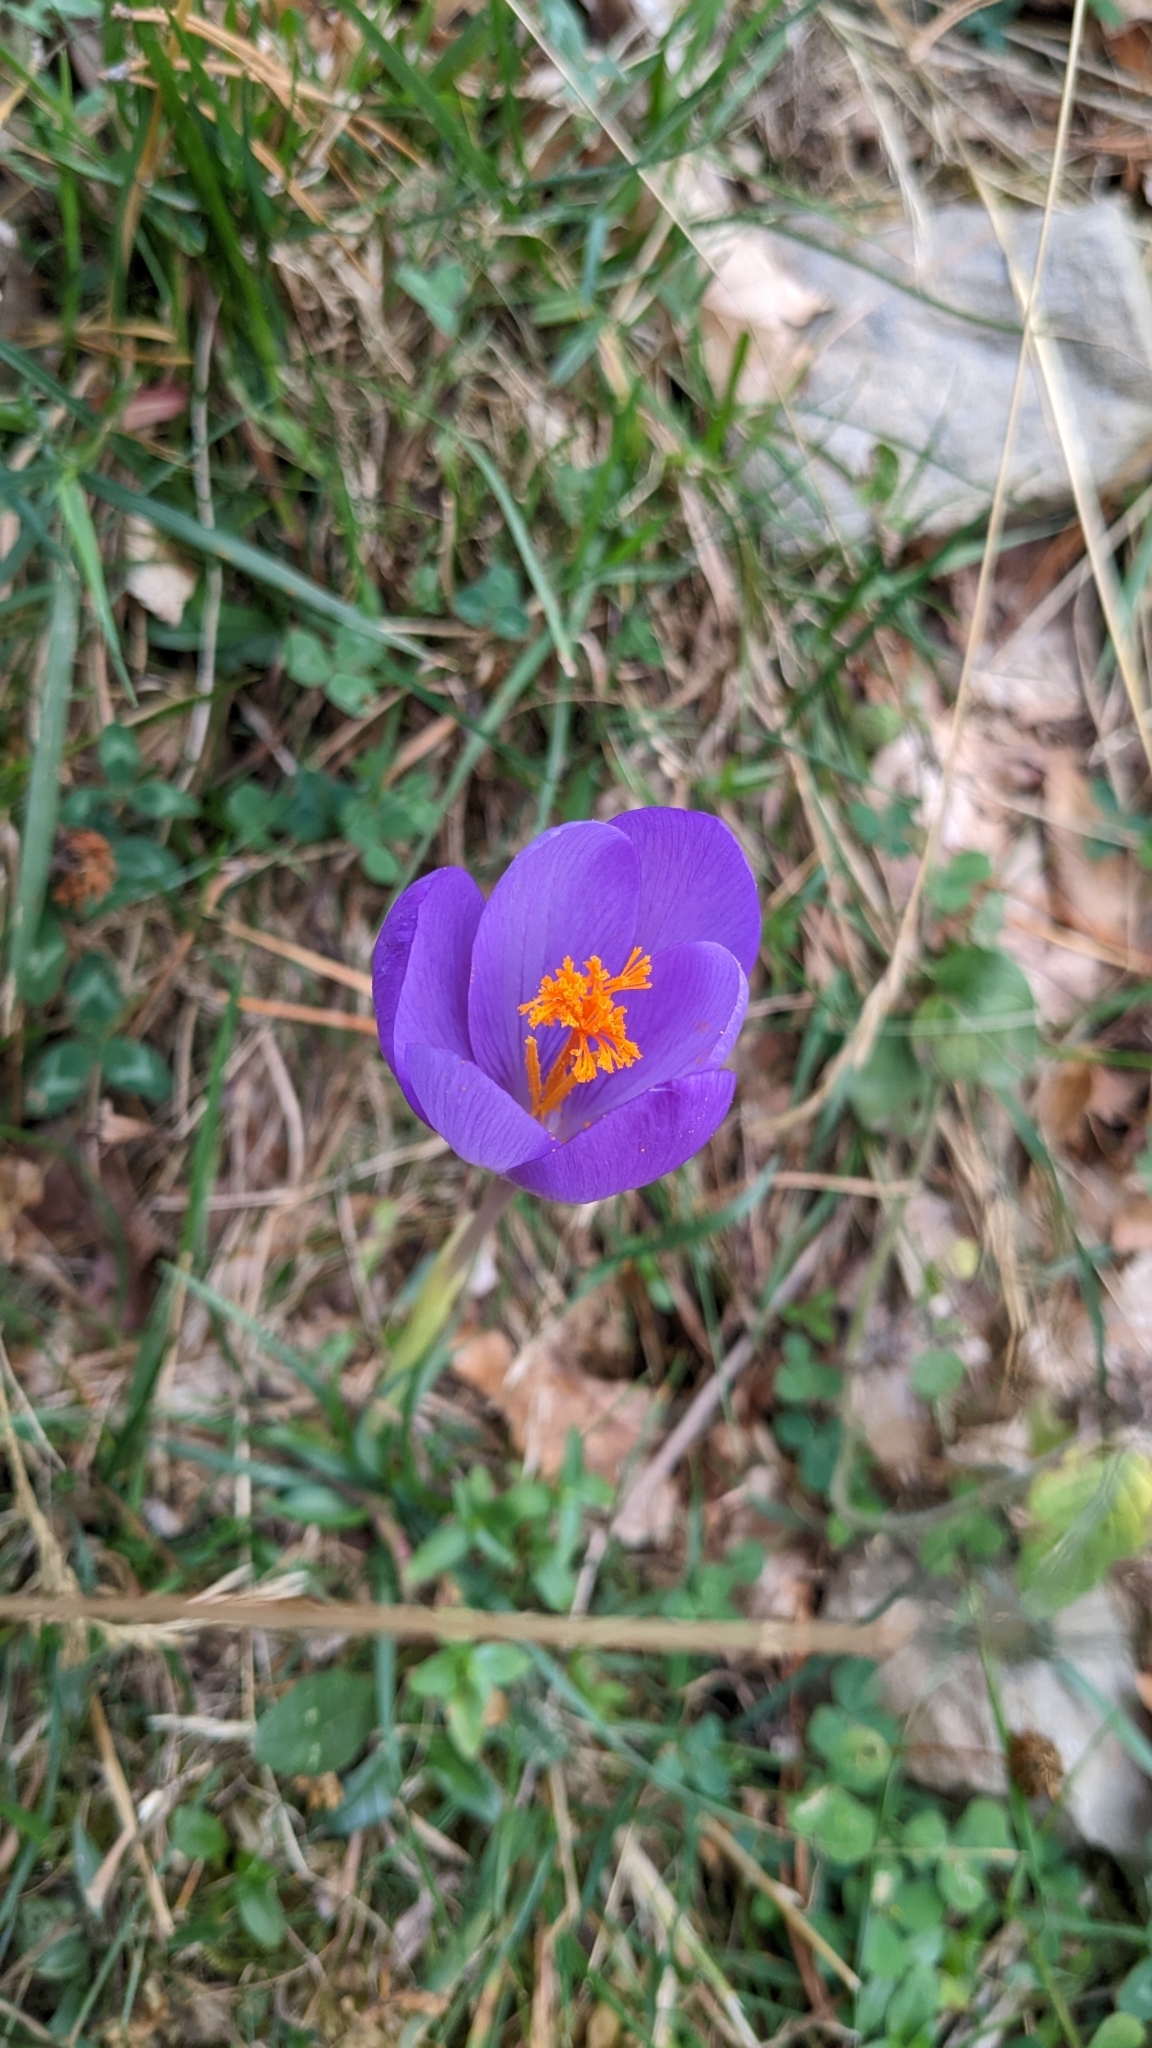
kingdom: Plantae
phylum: Tracheophyta
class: Liliopsida
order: Asparagales
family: Iridaceae
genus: Crocus
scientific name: Crocus nudiflorus
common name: Autumn crocus
